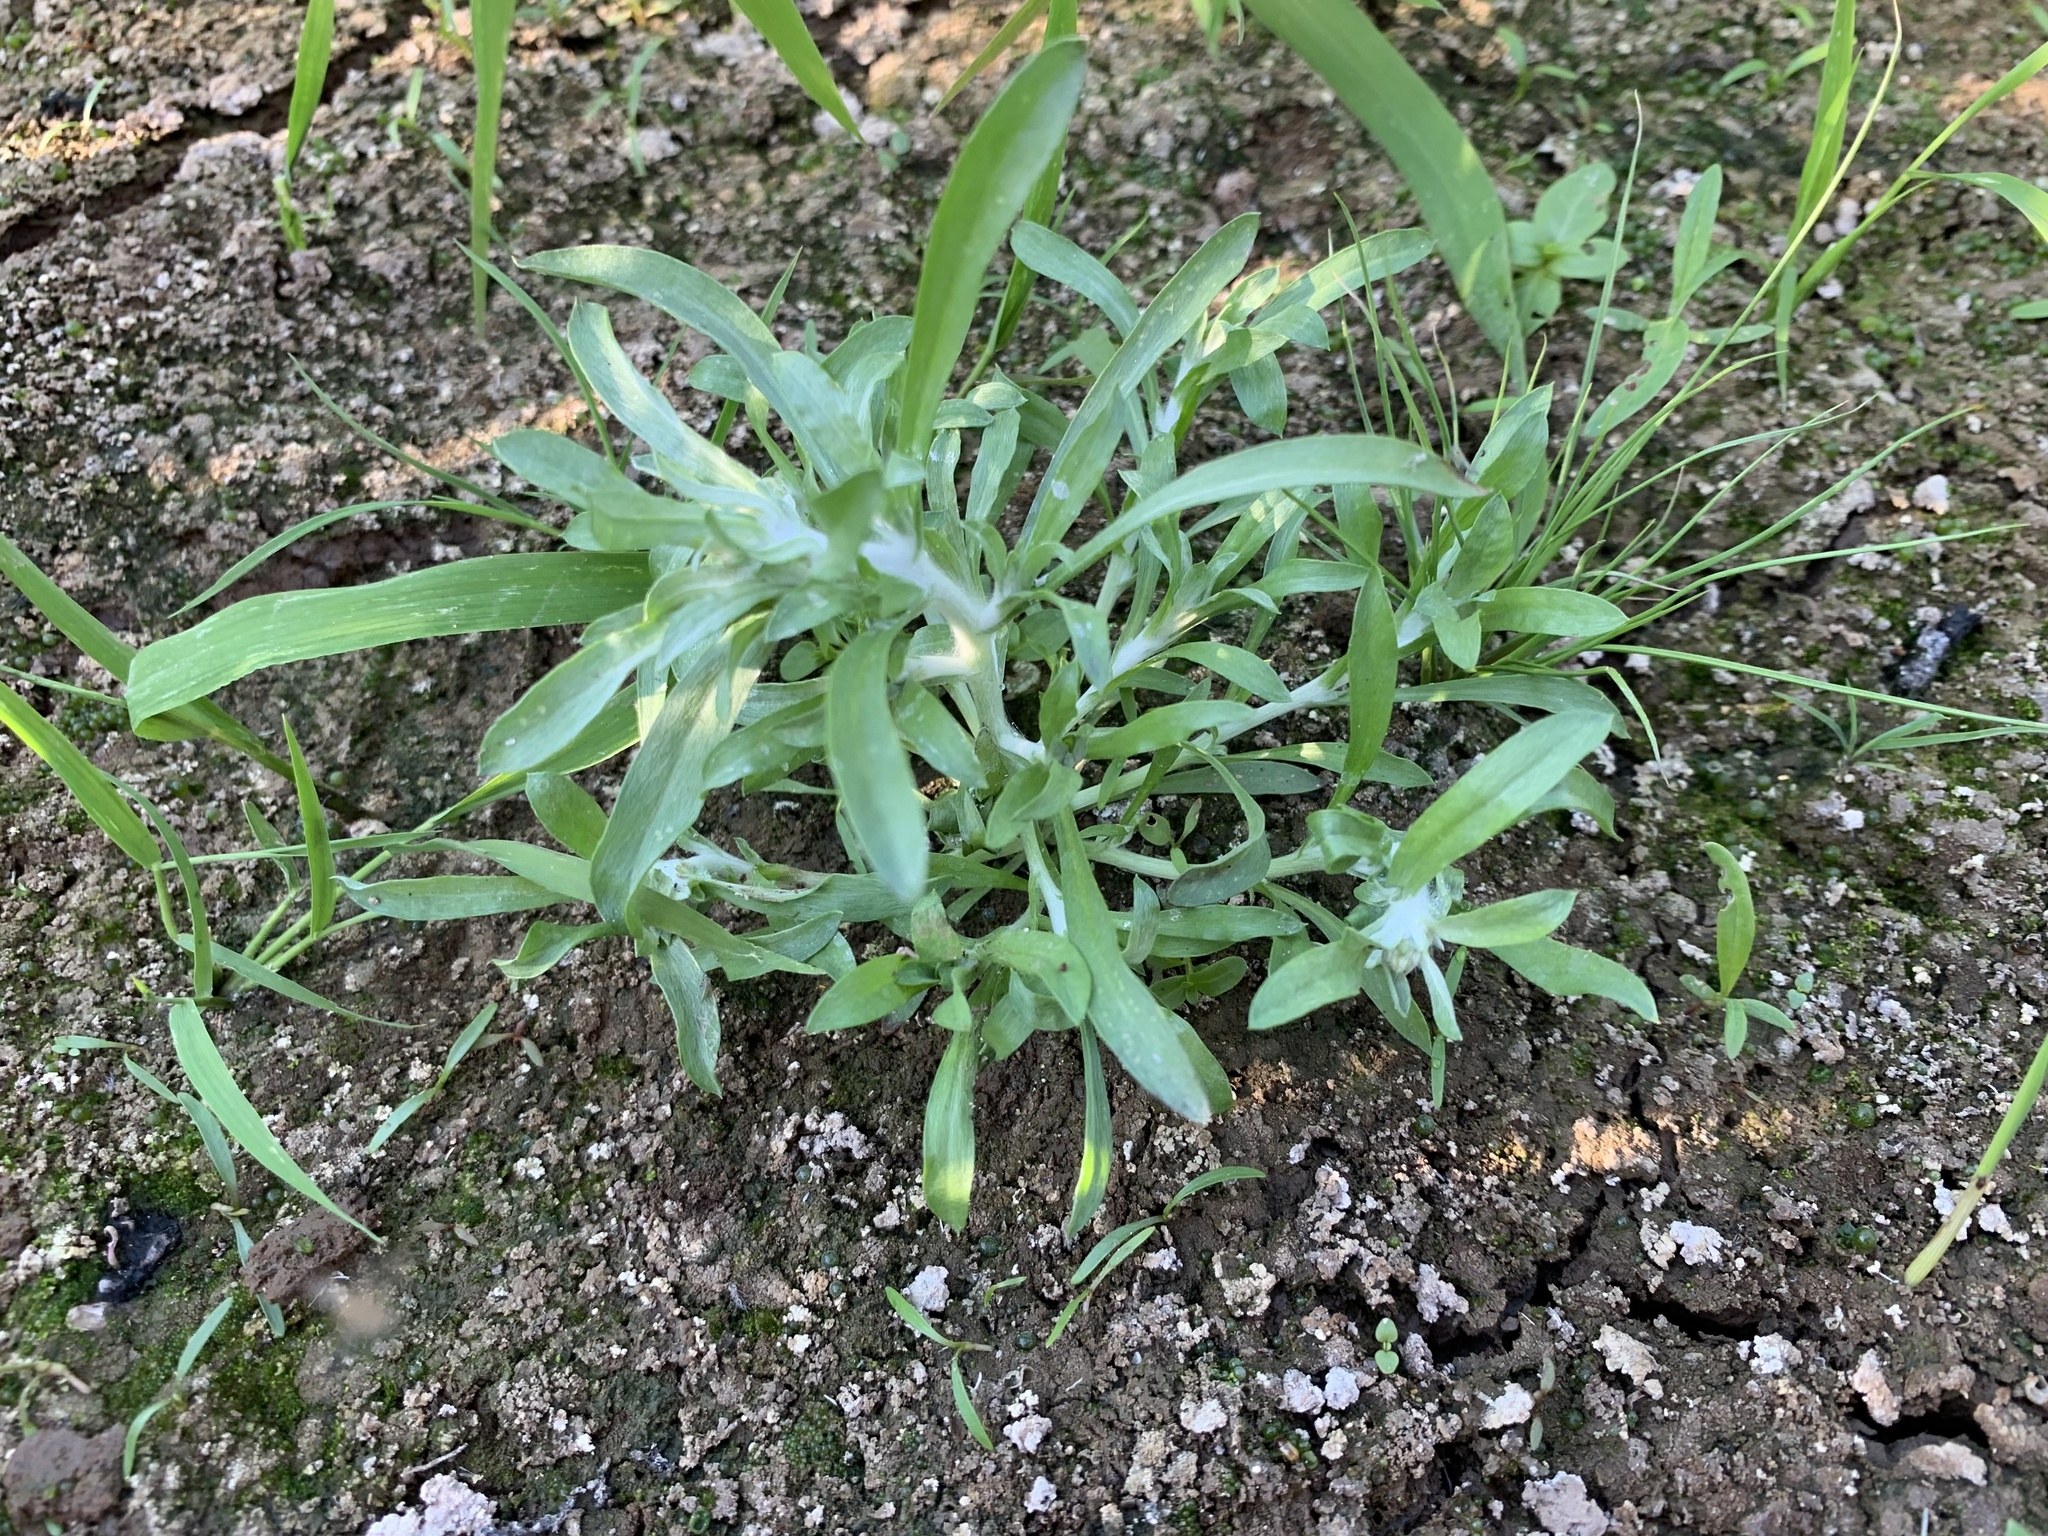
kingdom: Plantae
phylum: Tracheophyta
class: Magnoliopsida
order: Asterales
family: Asteraceae
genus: Gnaphalium
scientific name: Gnaphalium uliginosum
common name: Marsh cudweed
